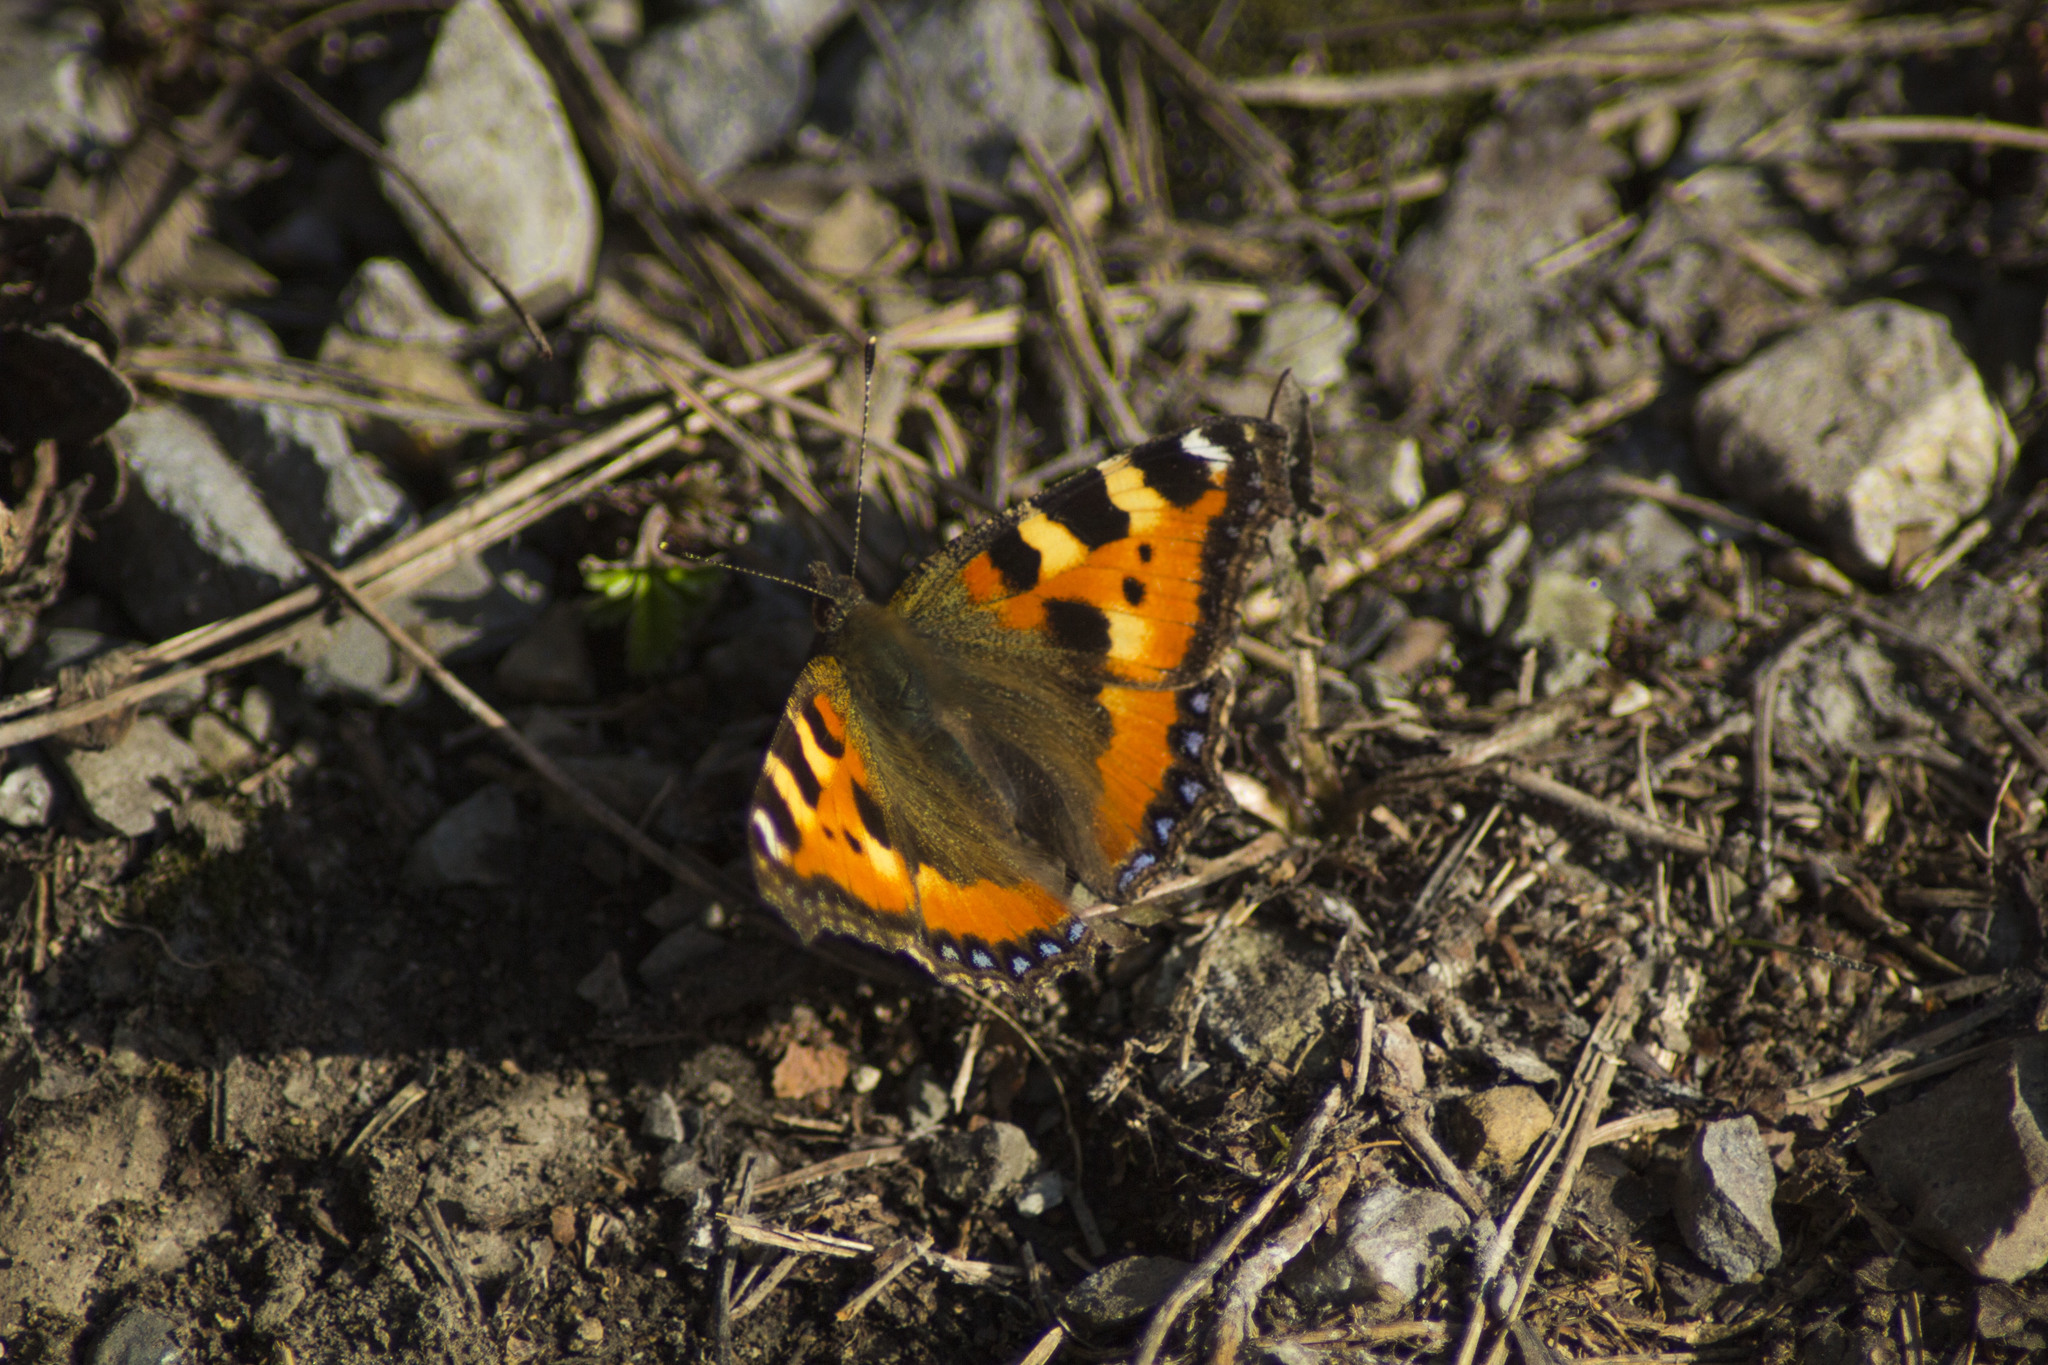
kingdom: Animalia
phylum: Arthropoda
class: Insecta
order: Lepidoptera
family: Nymphalidae
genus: Aglais
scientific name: Aglais urticae
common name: Small tortoiseshell
